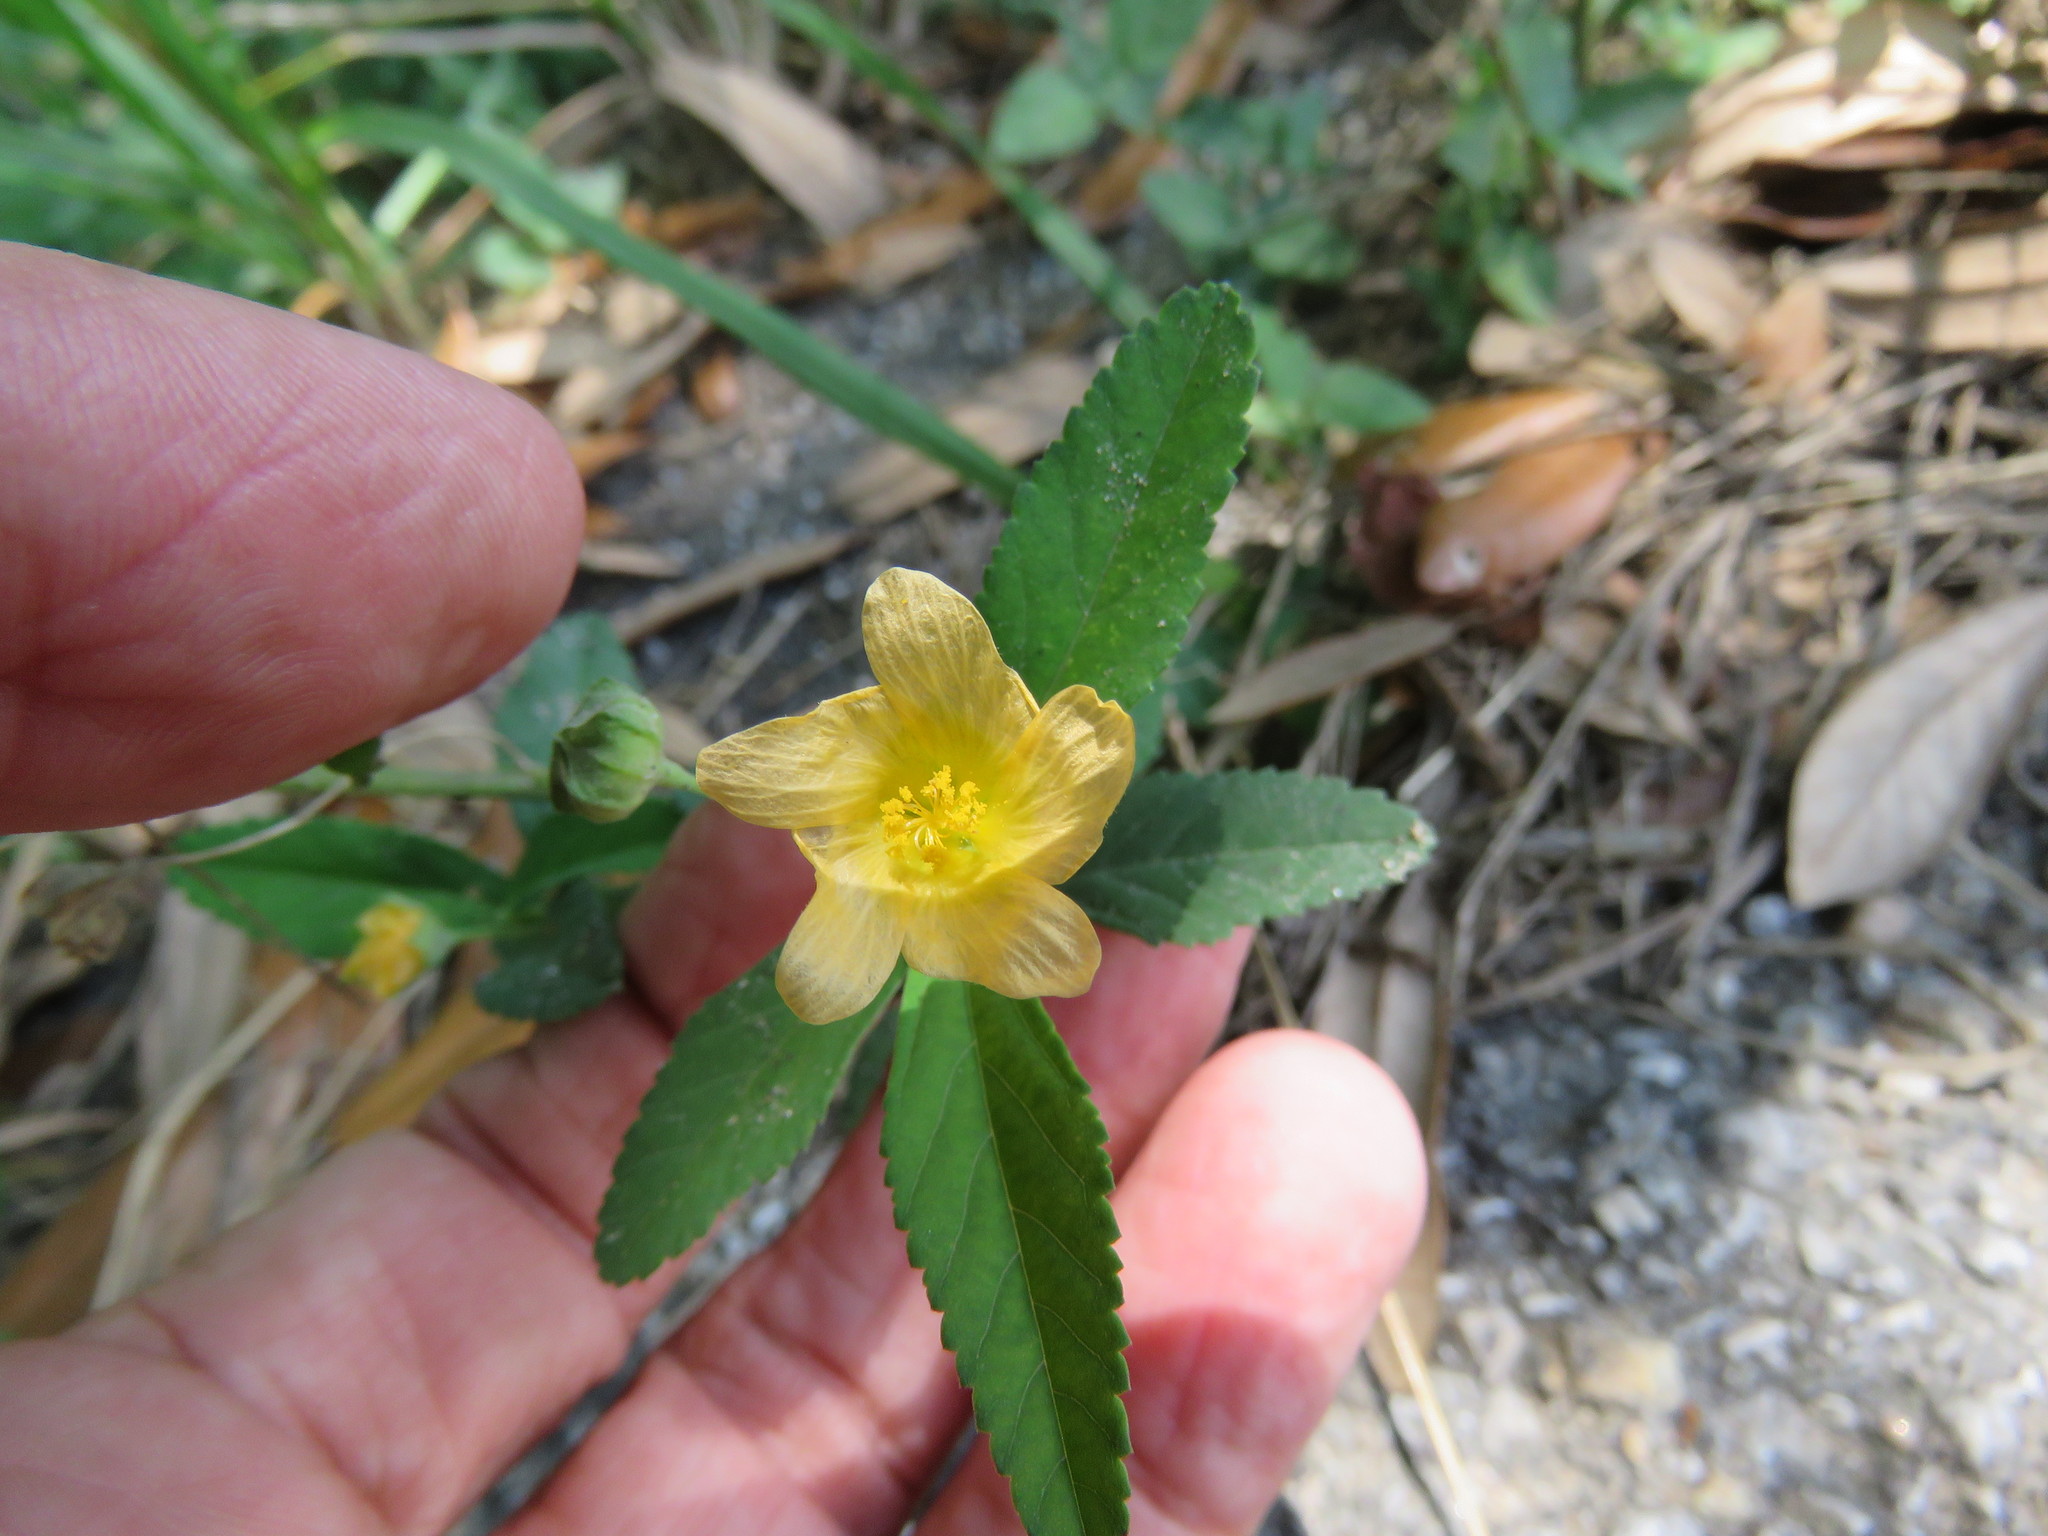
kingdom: Plantae
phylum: Tracheophyta
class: Magnoliopsida
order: Malvales
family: Malvaceae
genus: Sida
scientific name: Sida rhombifolia
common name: Queensland-hemp
